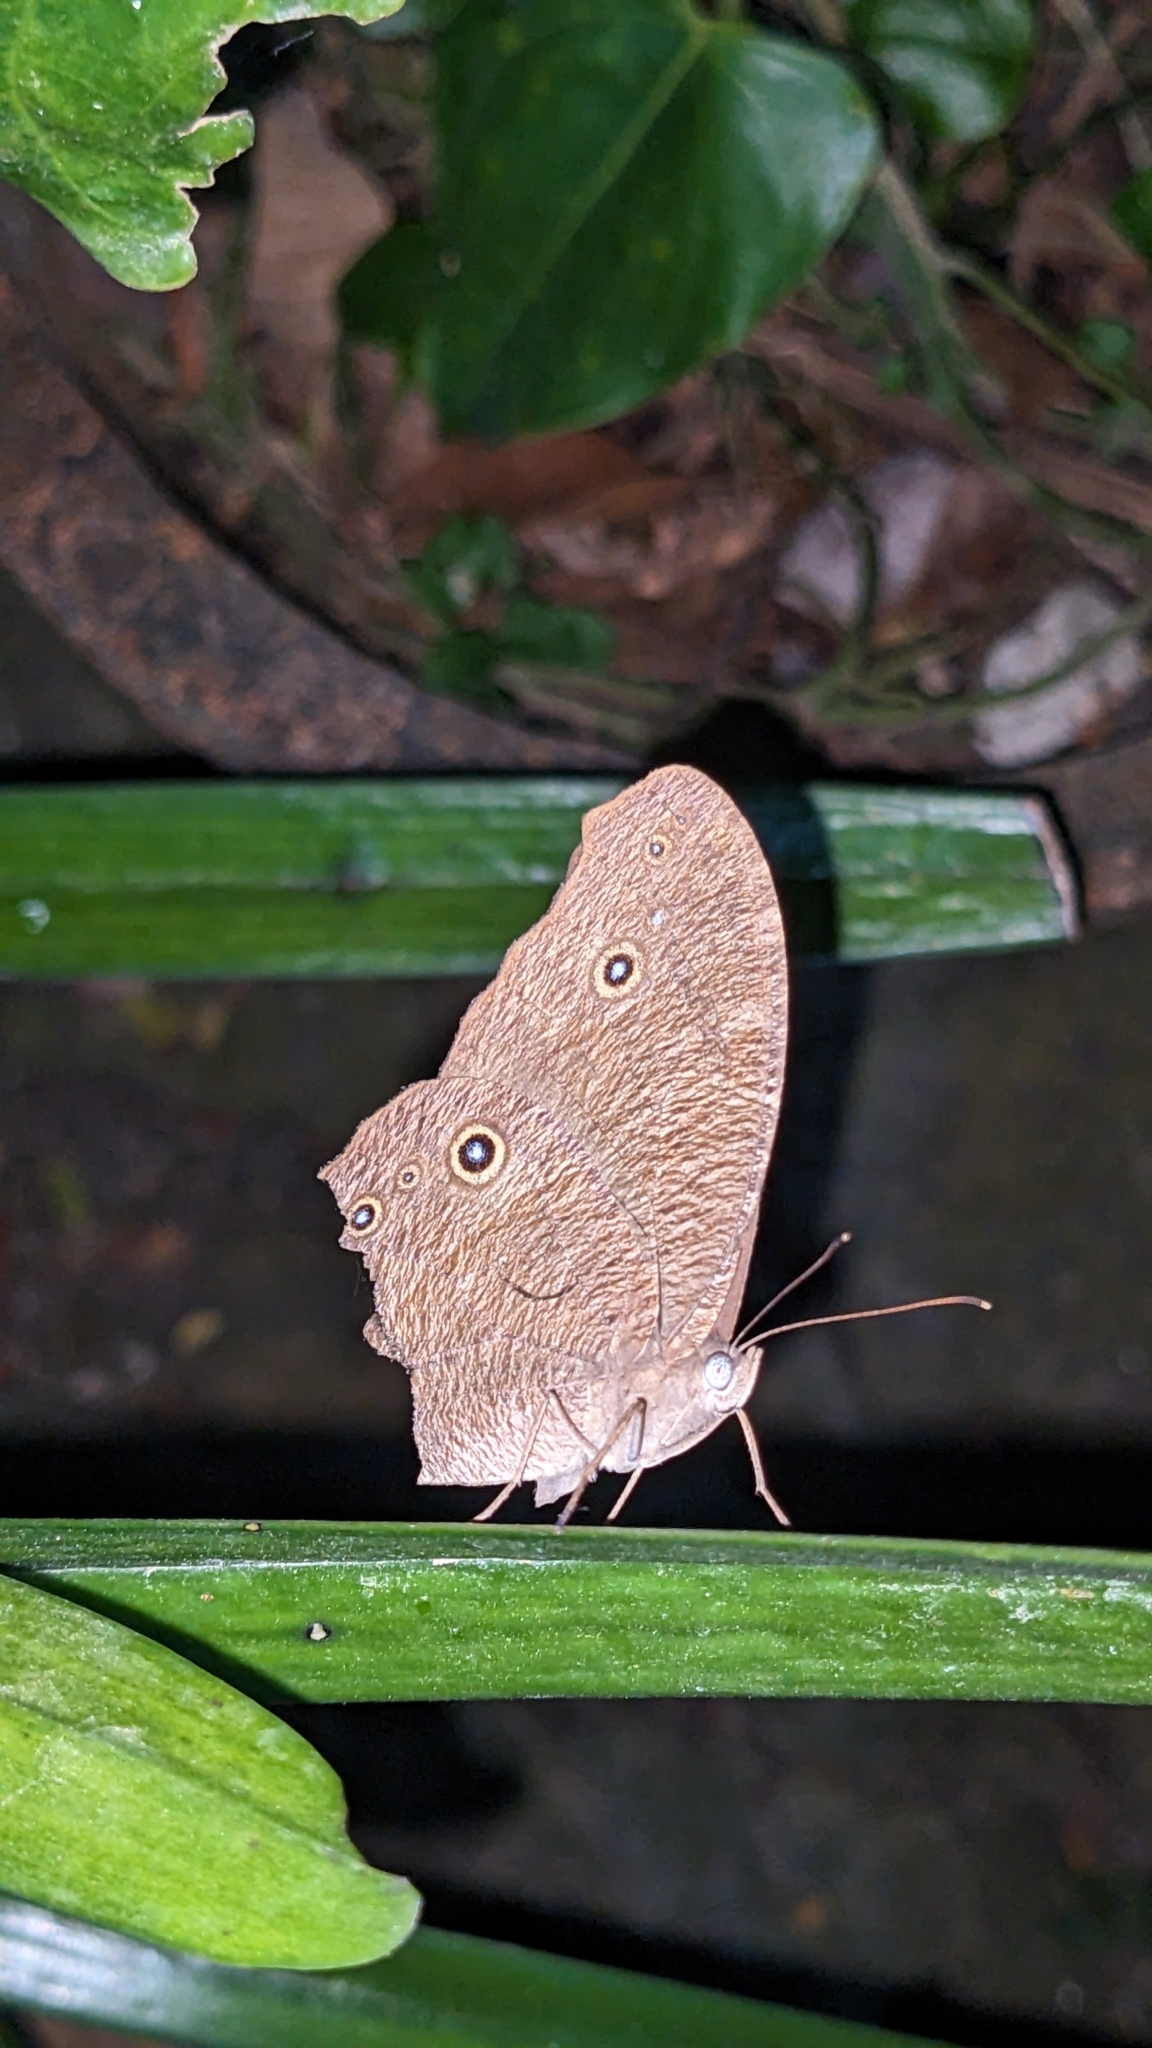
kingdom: Animalia
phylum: Arthropoda
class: Insecta
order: Lepidoptera
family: Nymphalidae
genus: Melanitis
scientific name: Melanitis leda
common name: Twilight brown
